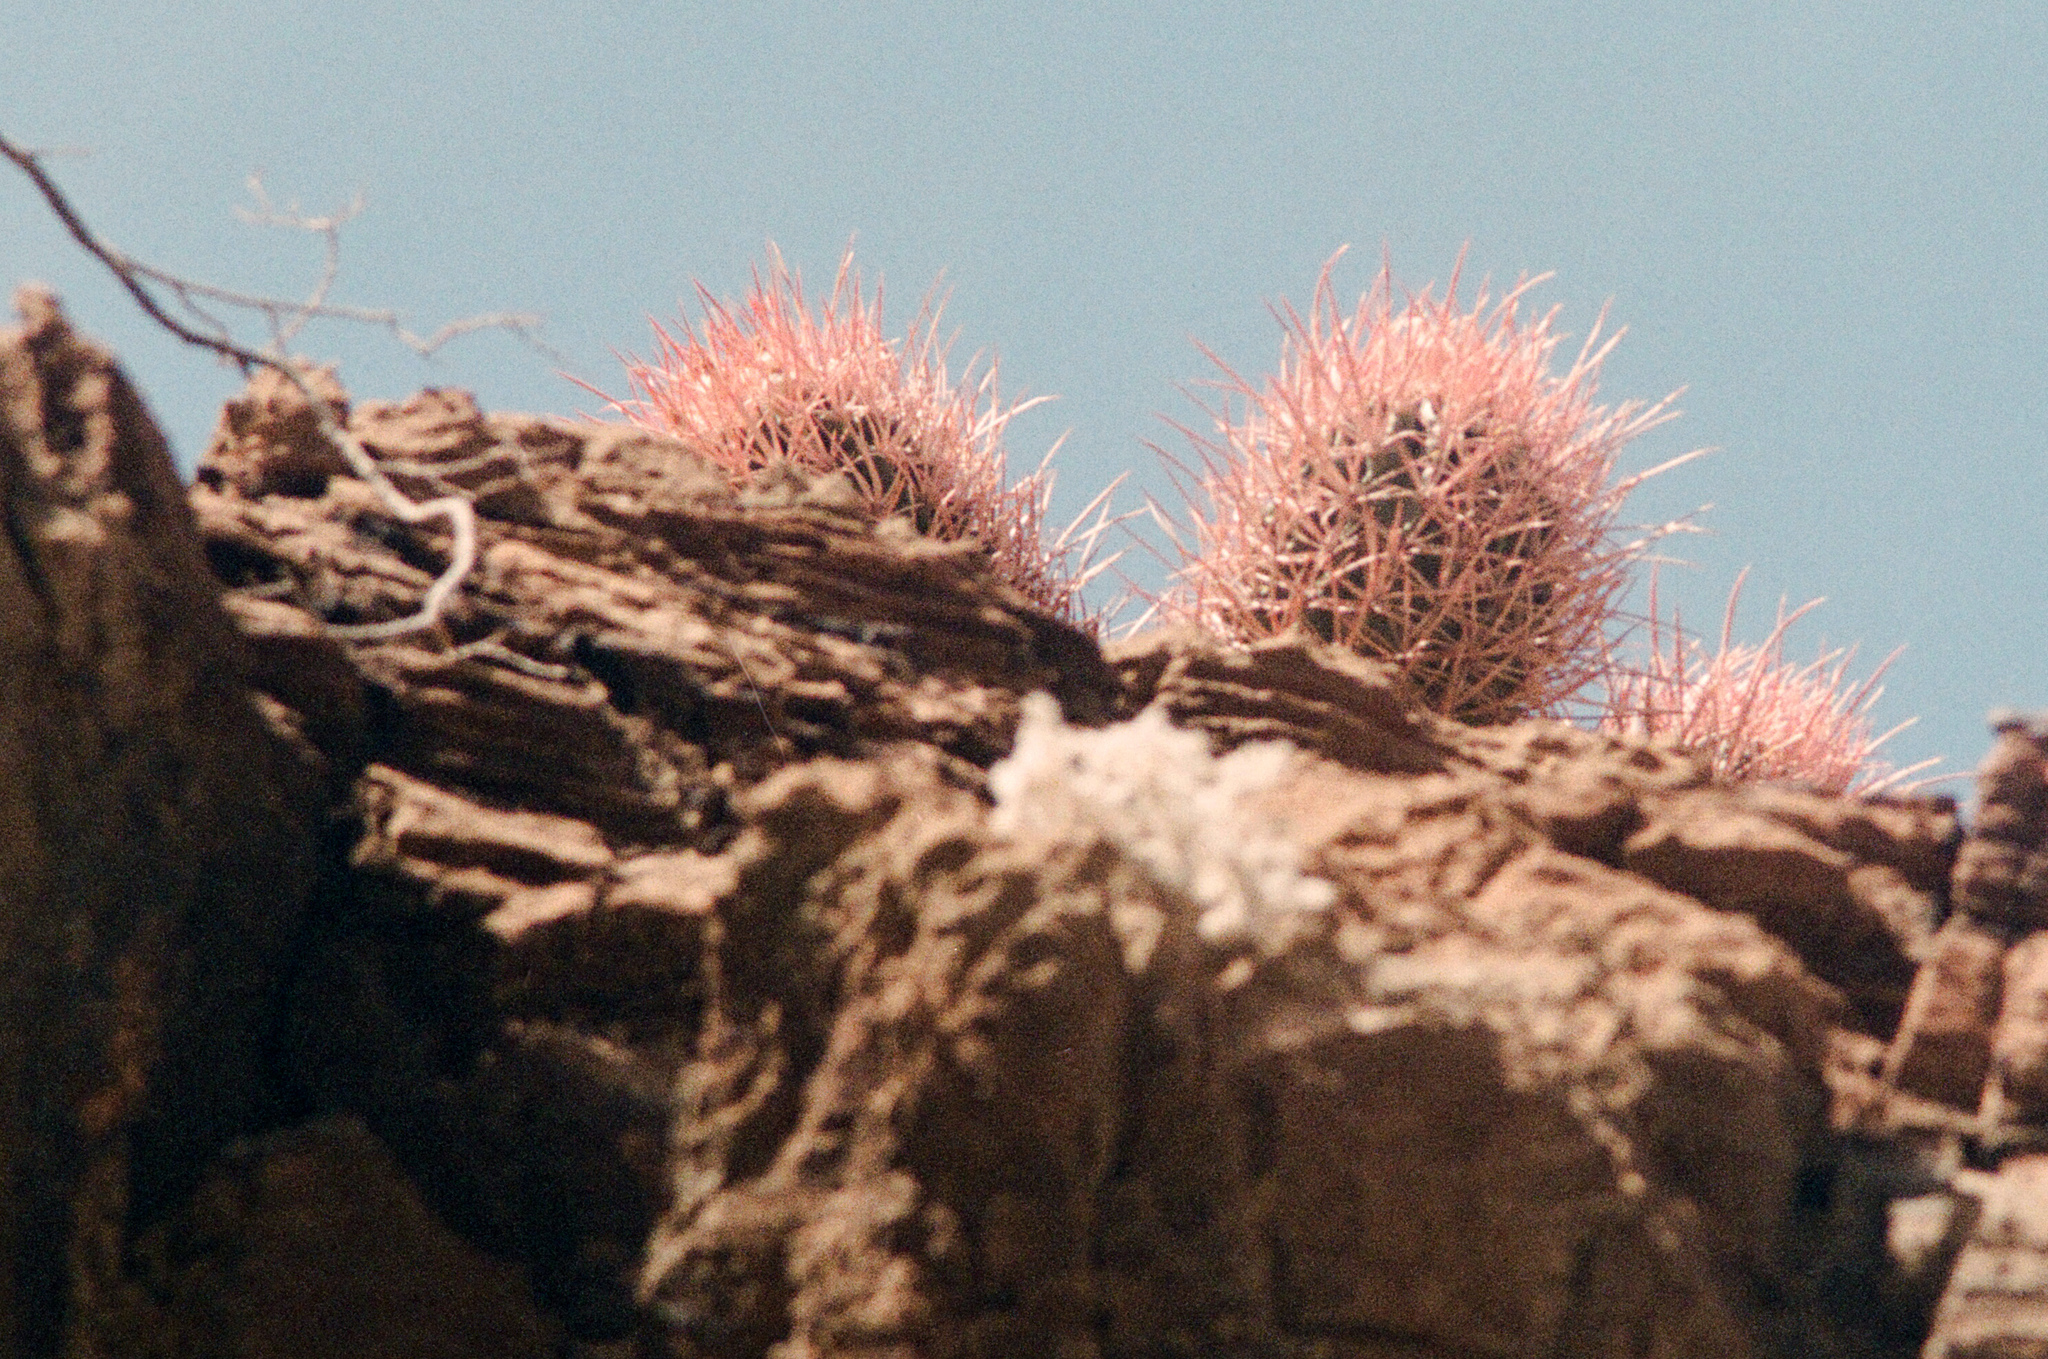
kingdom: Plantae
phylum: Tracheophyta
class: Magnoliopsida
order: Caryophyllales
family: Cactaceae
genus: Echinocactus
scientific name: Echinocactus polycephalus
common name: Cottontop cactus
